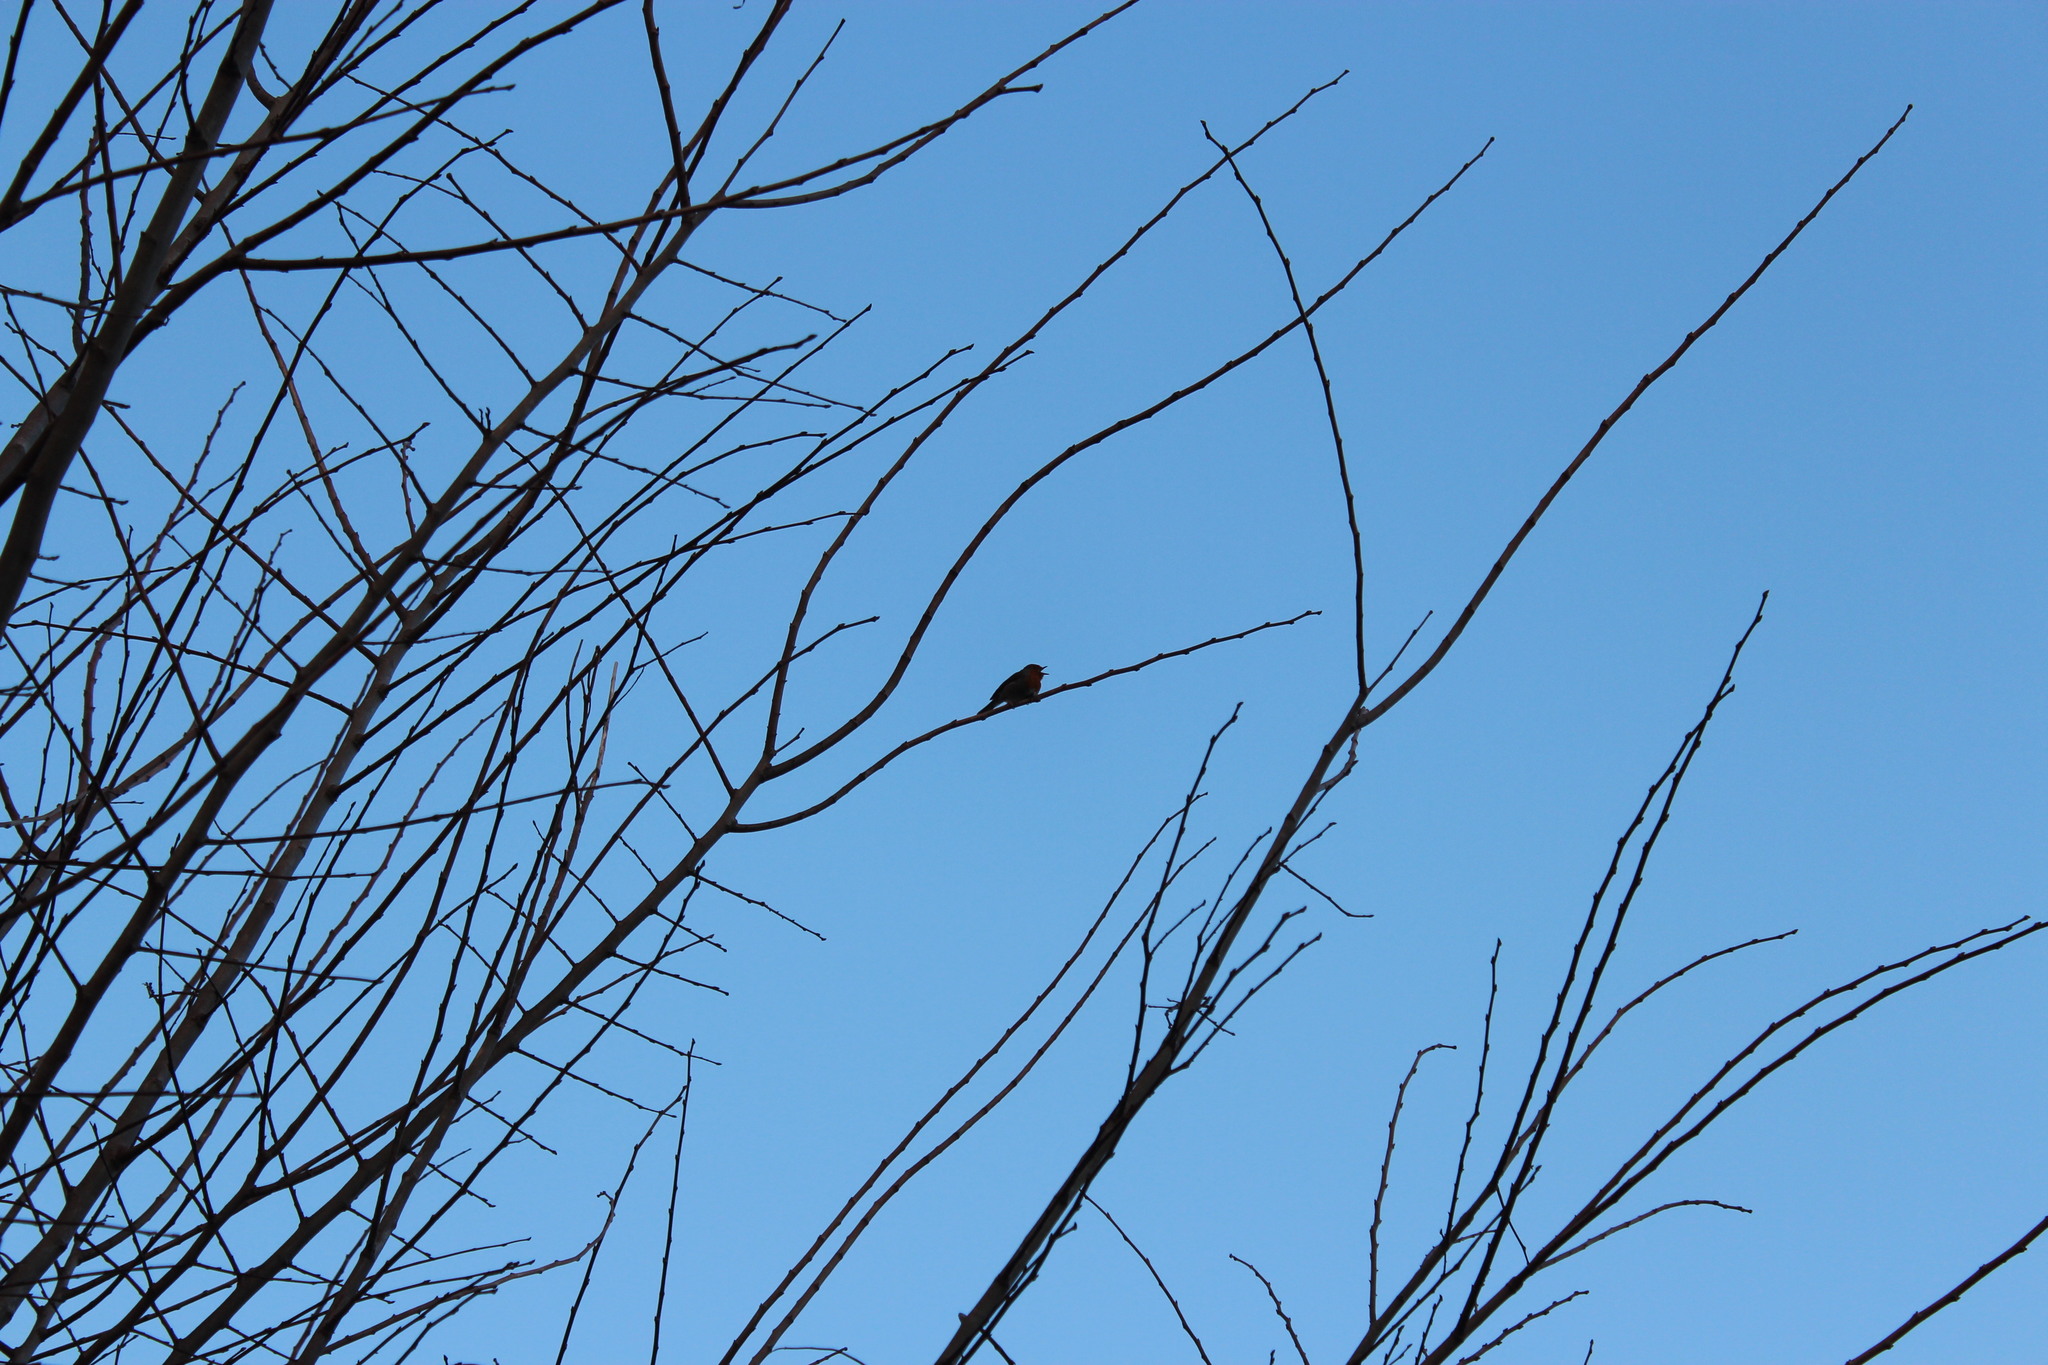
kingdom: Animalia
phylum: Chordata
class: Aves
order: Passeriformes
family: Muscicapidae
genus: Erithacus
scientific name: Erithacus rubecula
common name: European robin
